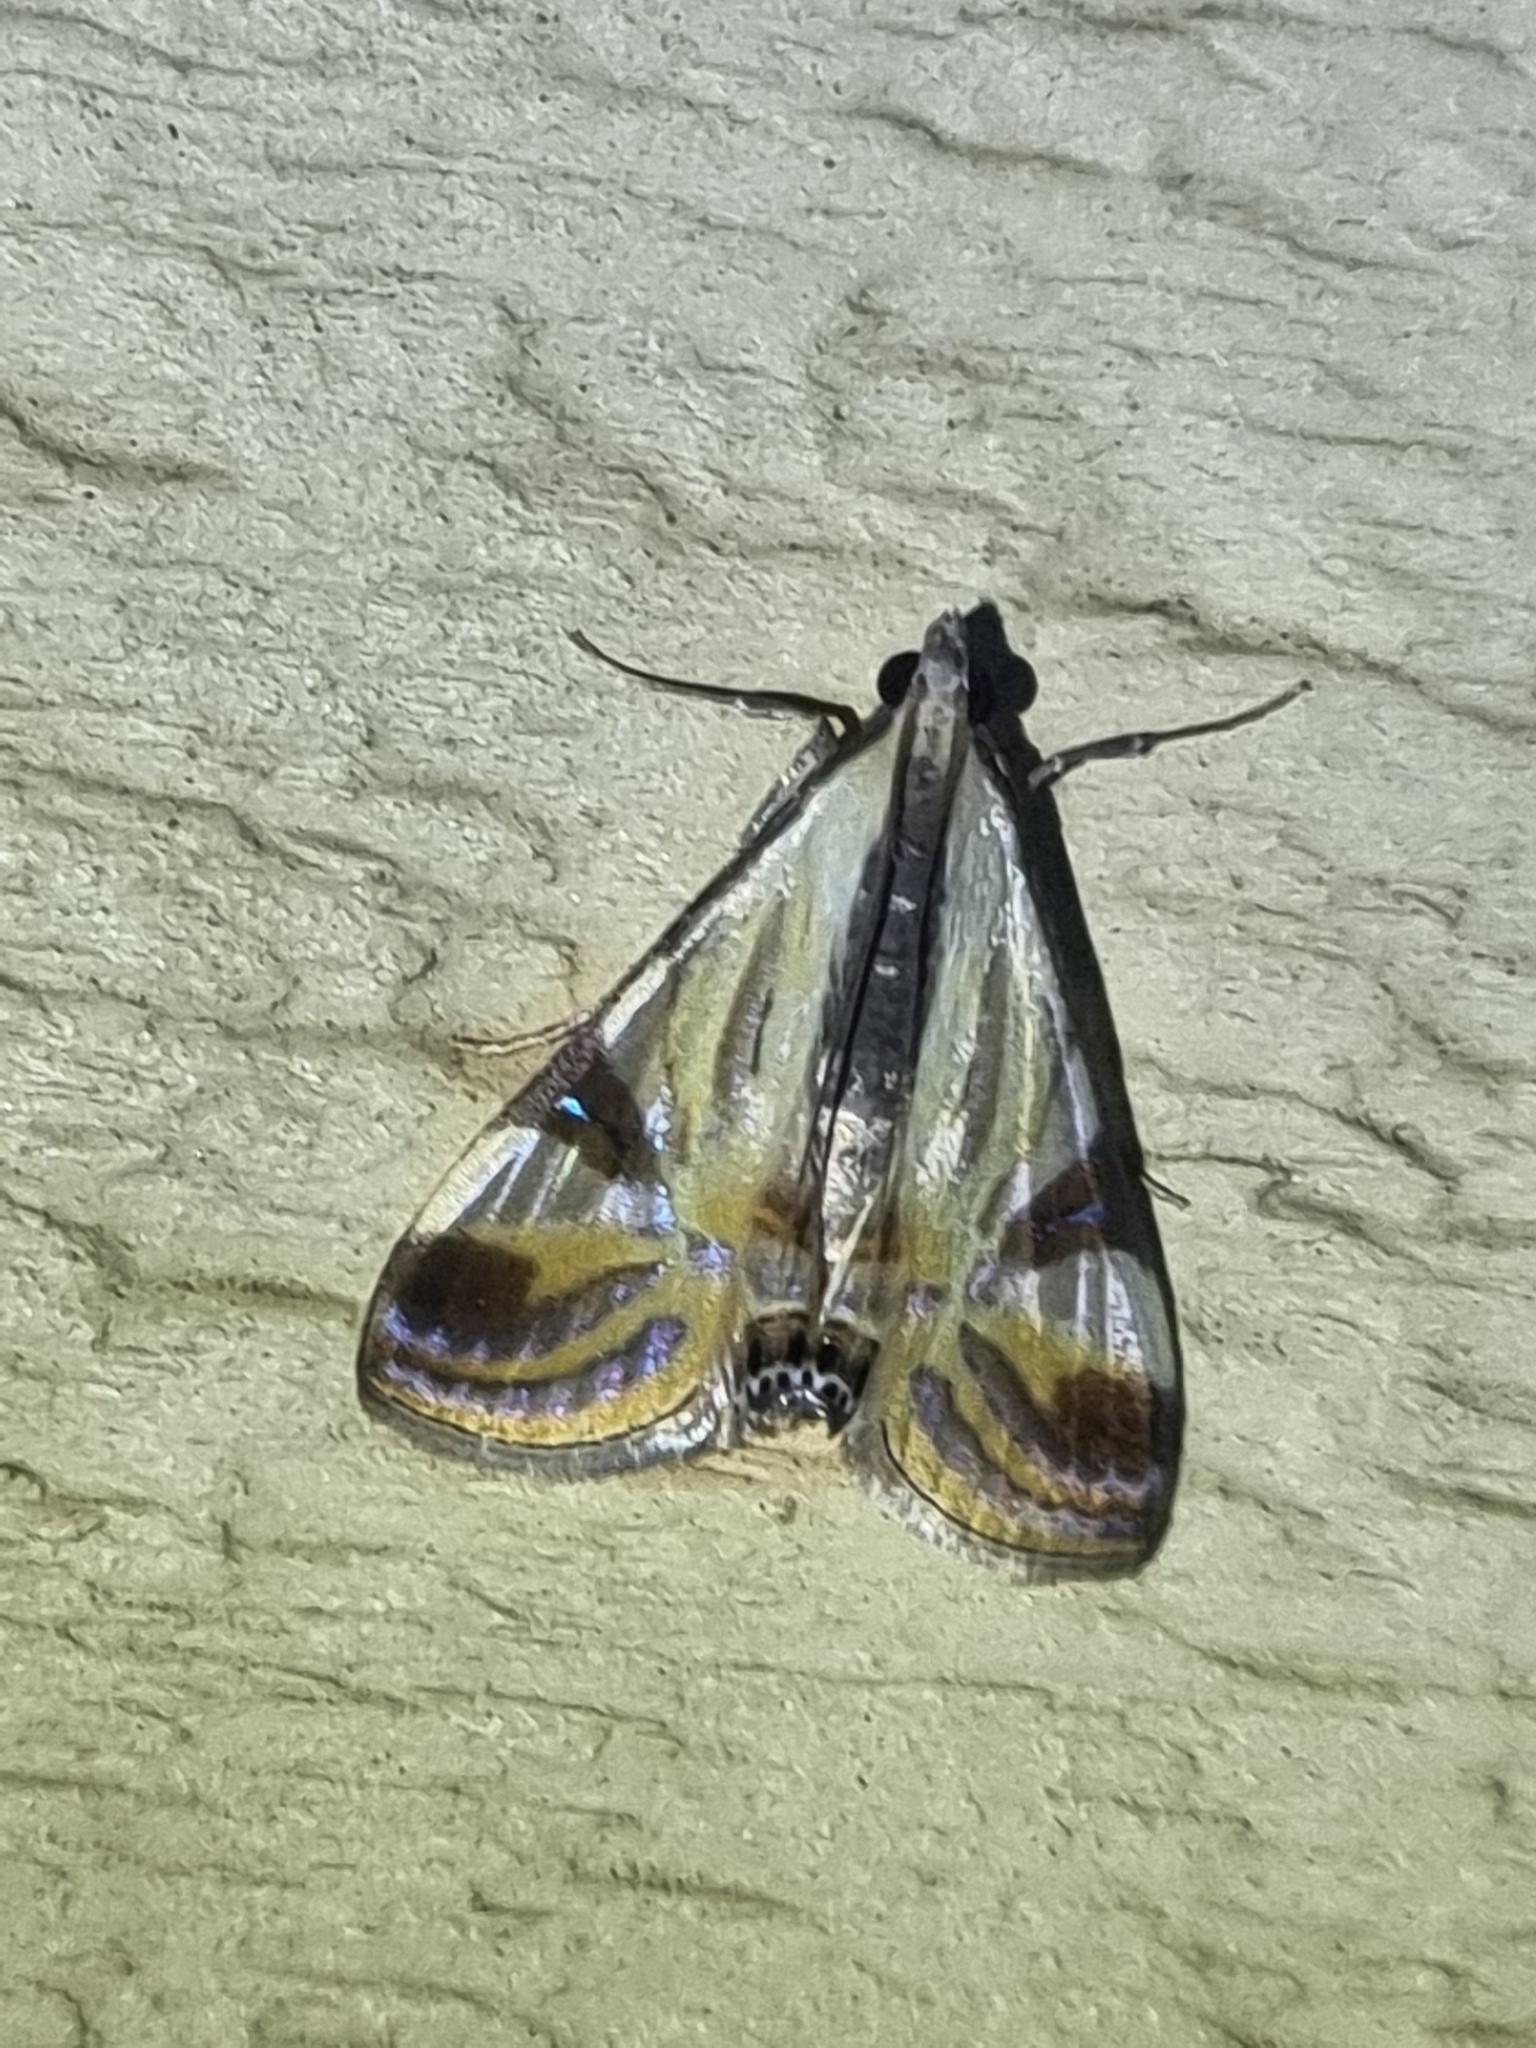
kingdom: Animalia
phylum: Arthropoda
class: Insecta
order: Lepidoptera
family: Crambidae
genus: Talanga
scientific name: Talanga tolumnialis
